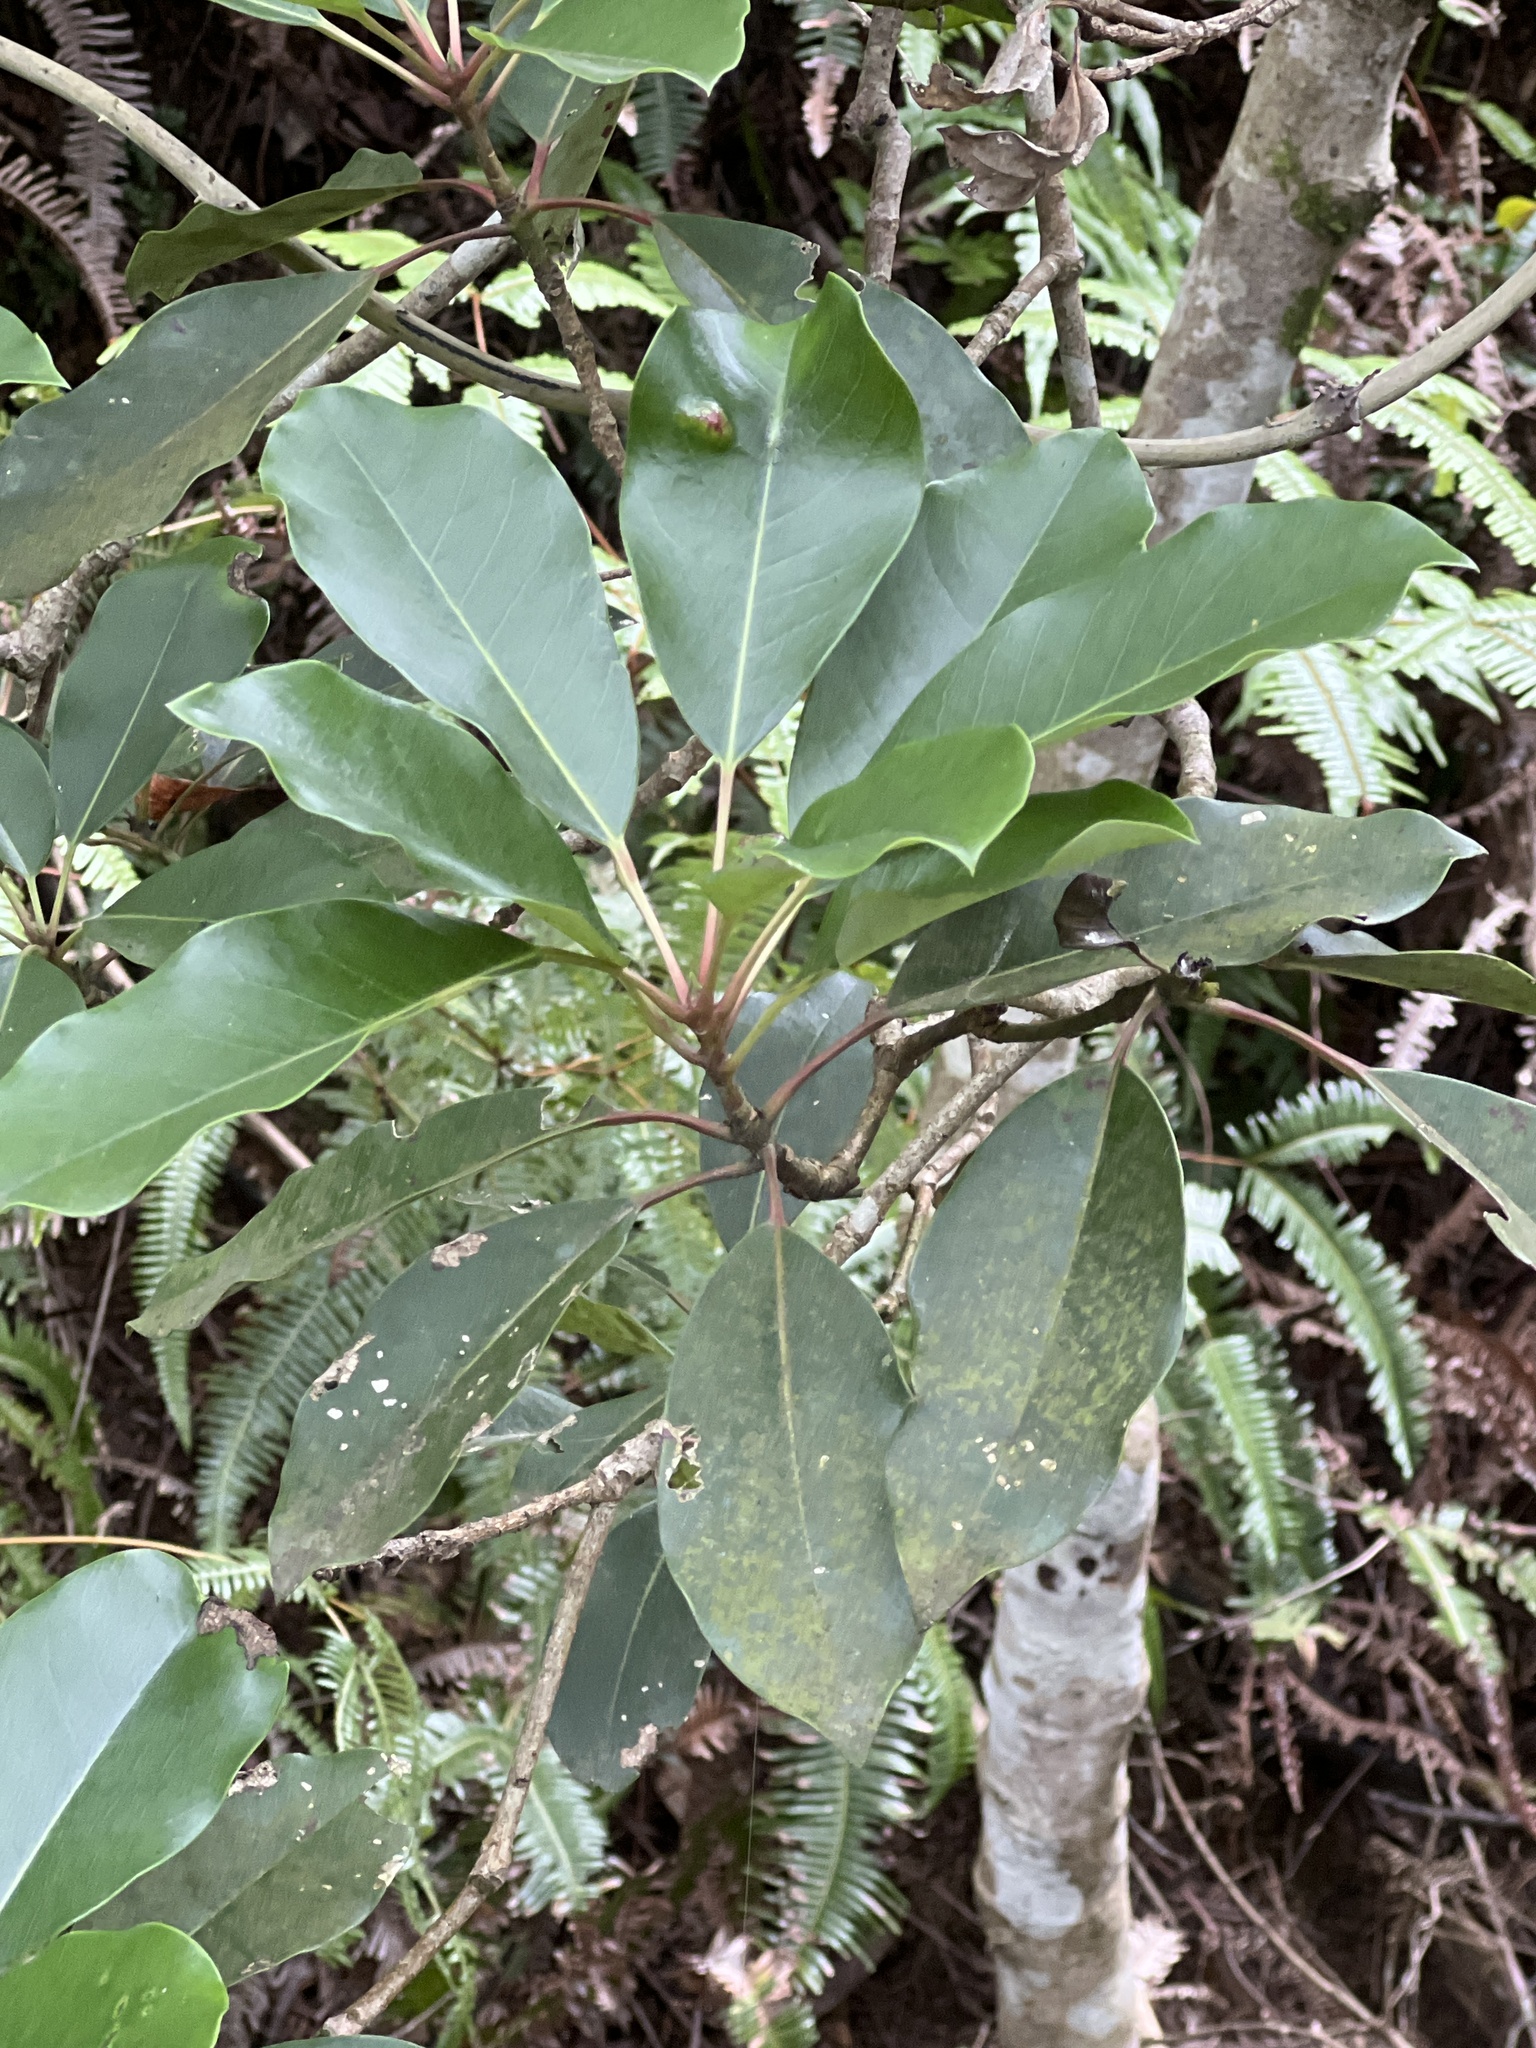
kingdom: Plantae
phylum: Tracheophyta
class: Magnoliopsida
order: Saxifragales
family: Daphniphyllaceae
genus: Daphniphyllum
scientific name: Daphniphyllum pentandrum
